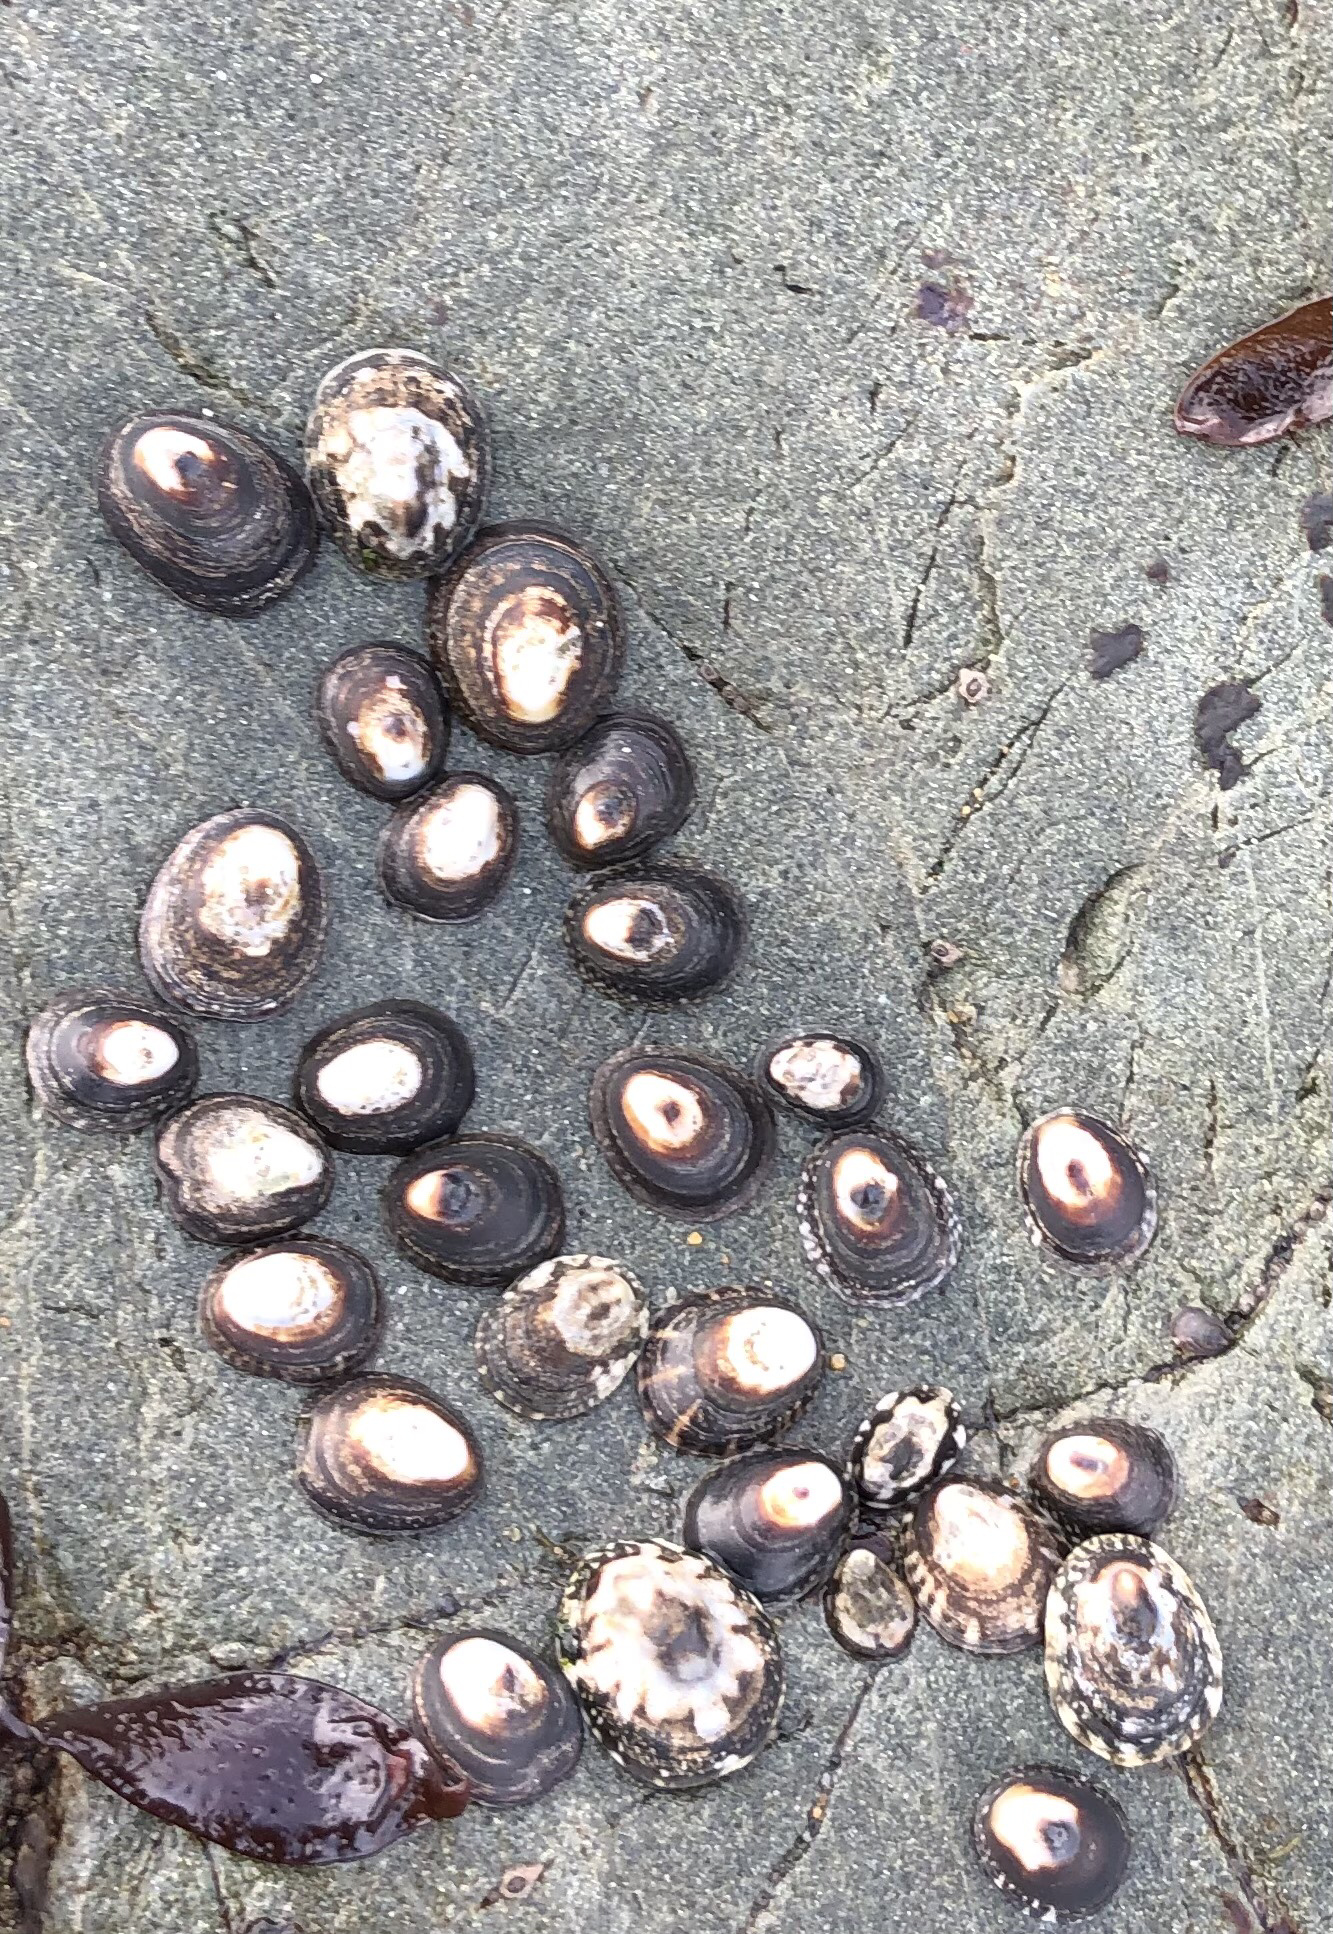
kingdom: Animalia
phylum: Mollusca
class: Gastropoda
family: Lottiidae
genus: Lottia
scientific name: Lottia digitalis
